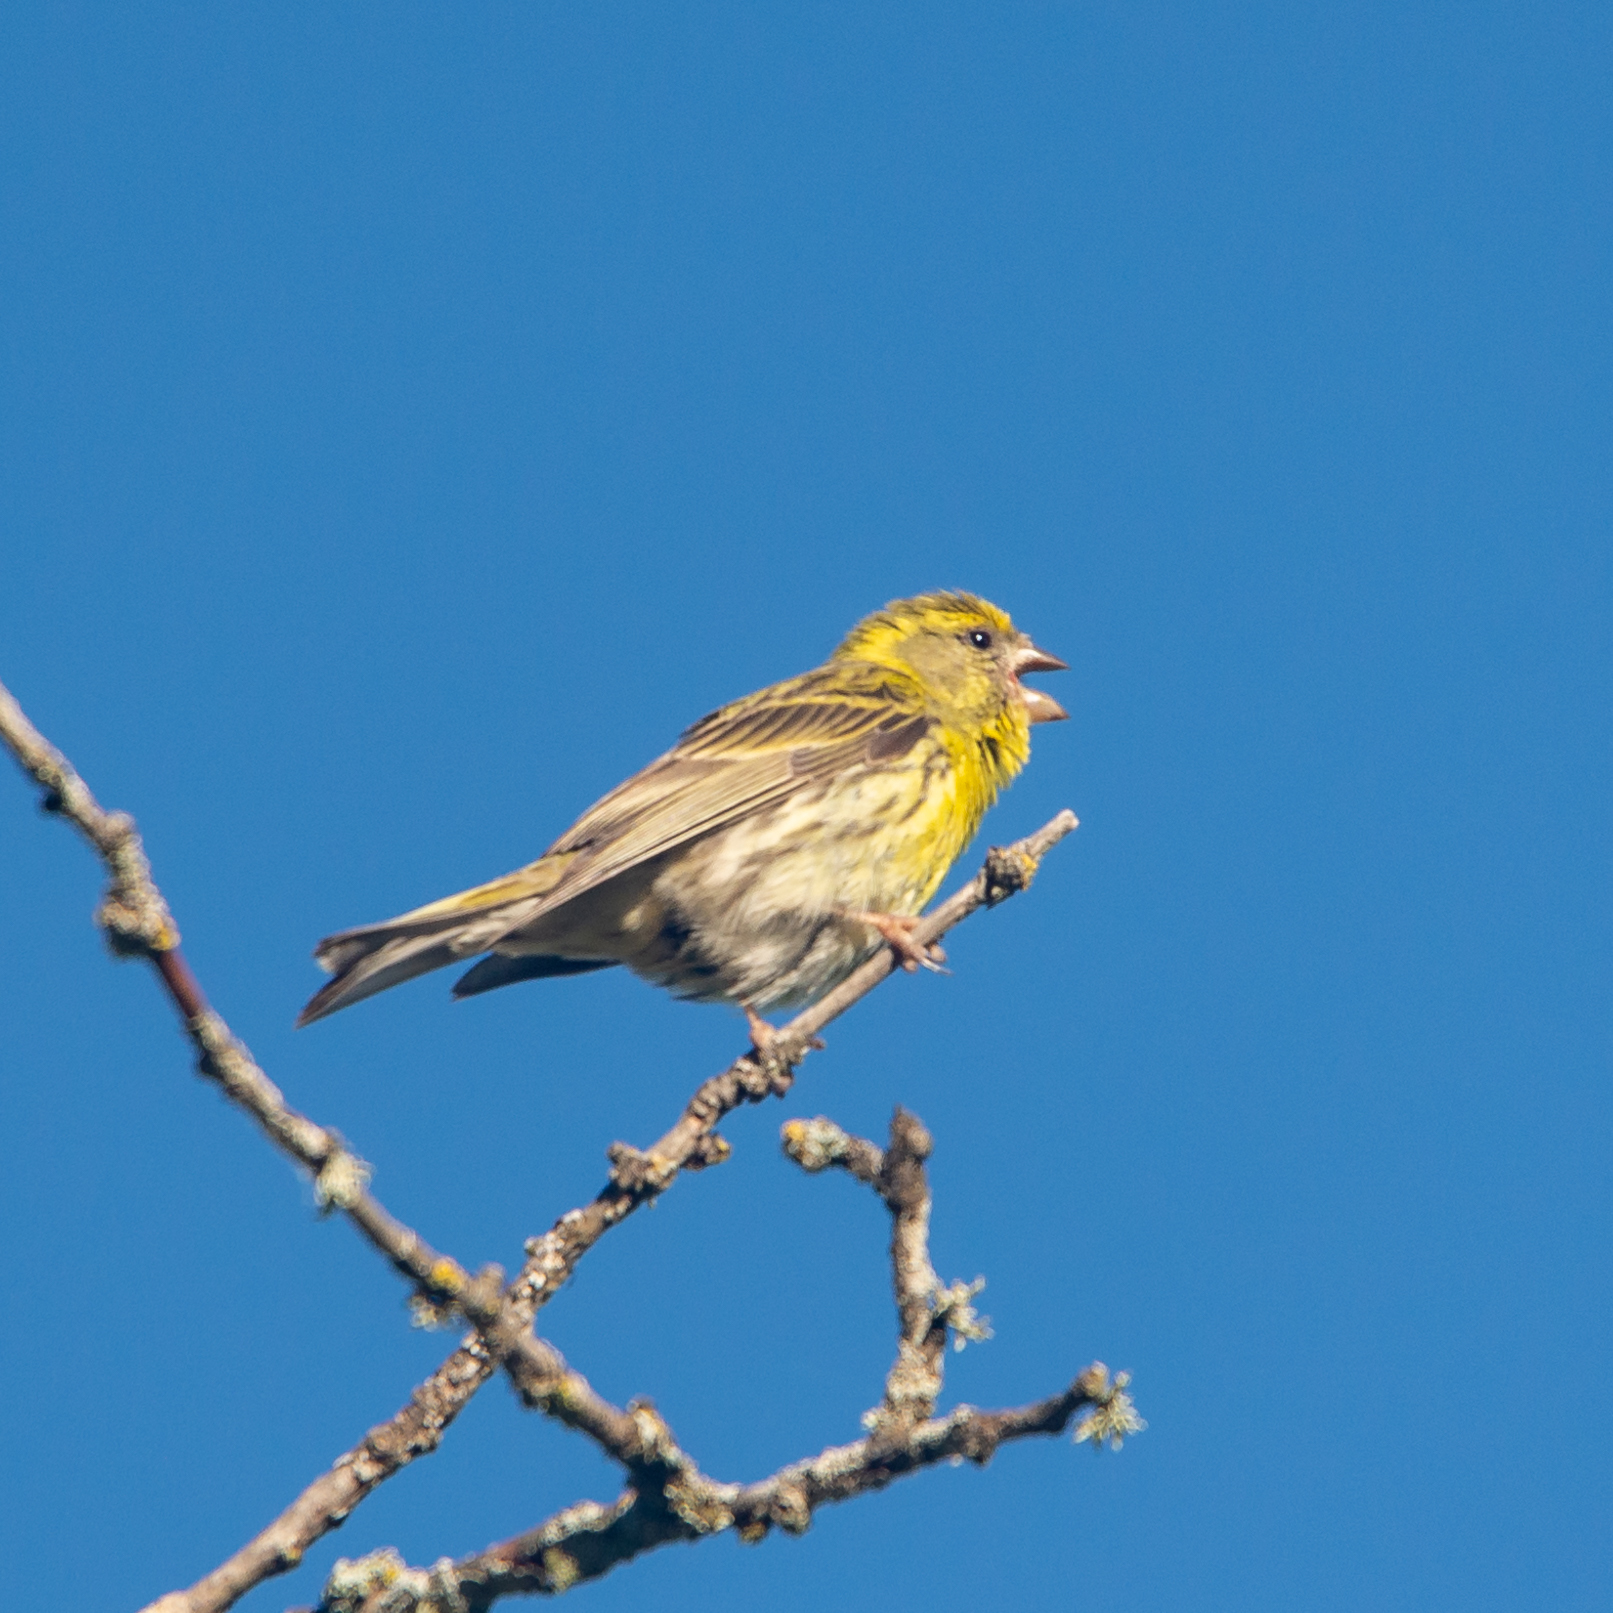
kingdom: Animalia
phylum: Chordata
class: Aves
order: Passeriformes
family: Fringillidae
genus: Serinus
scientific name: Serinus serinus
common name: European serin
